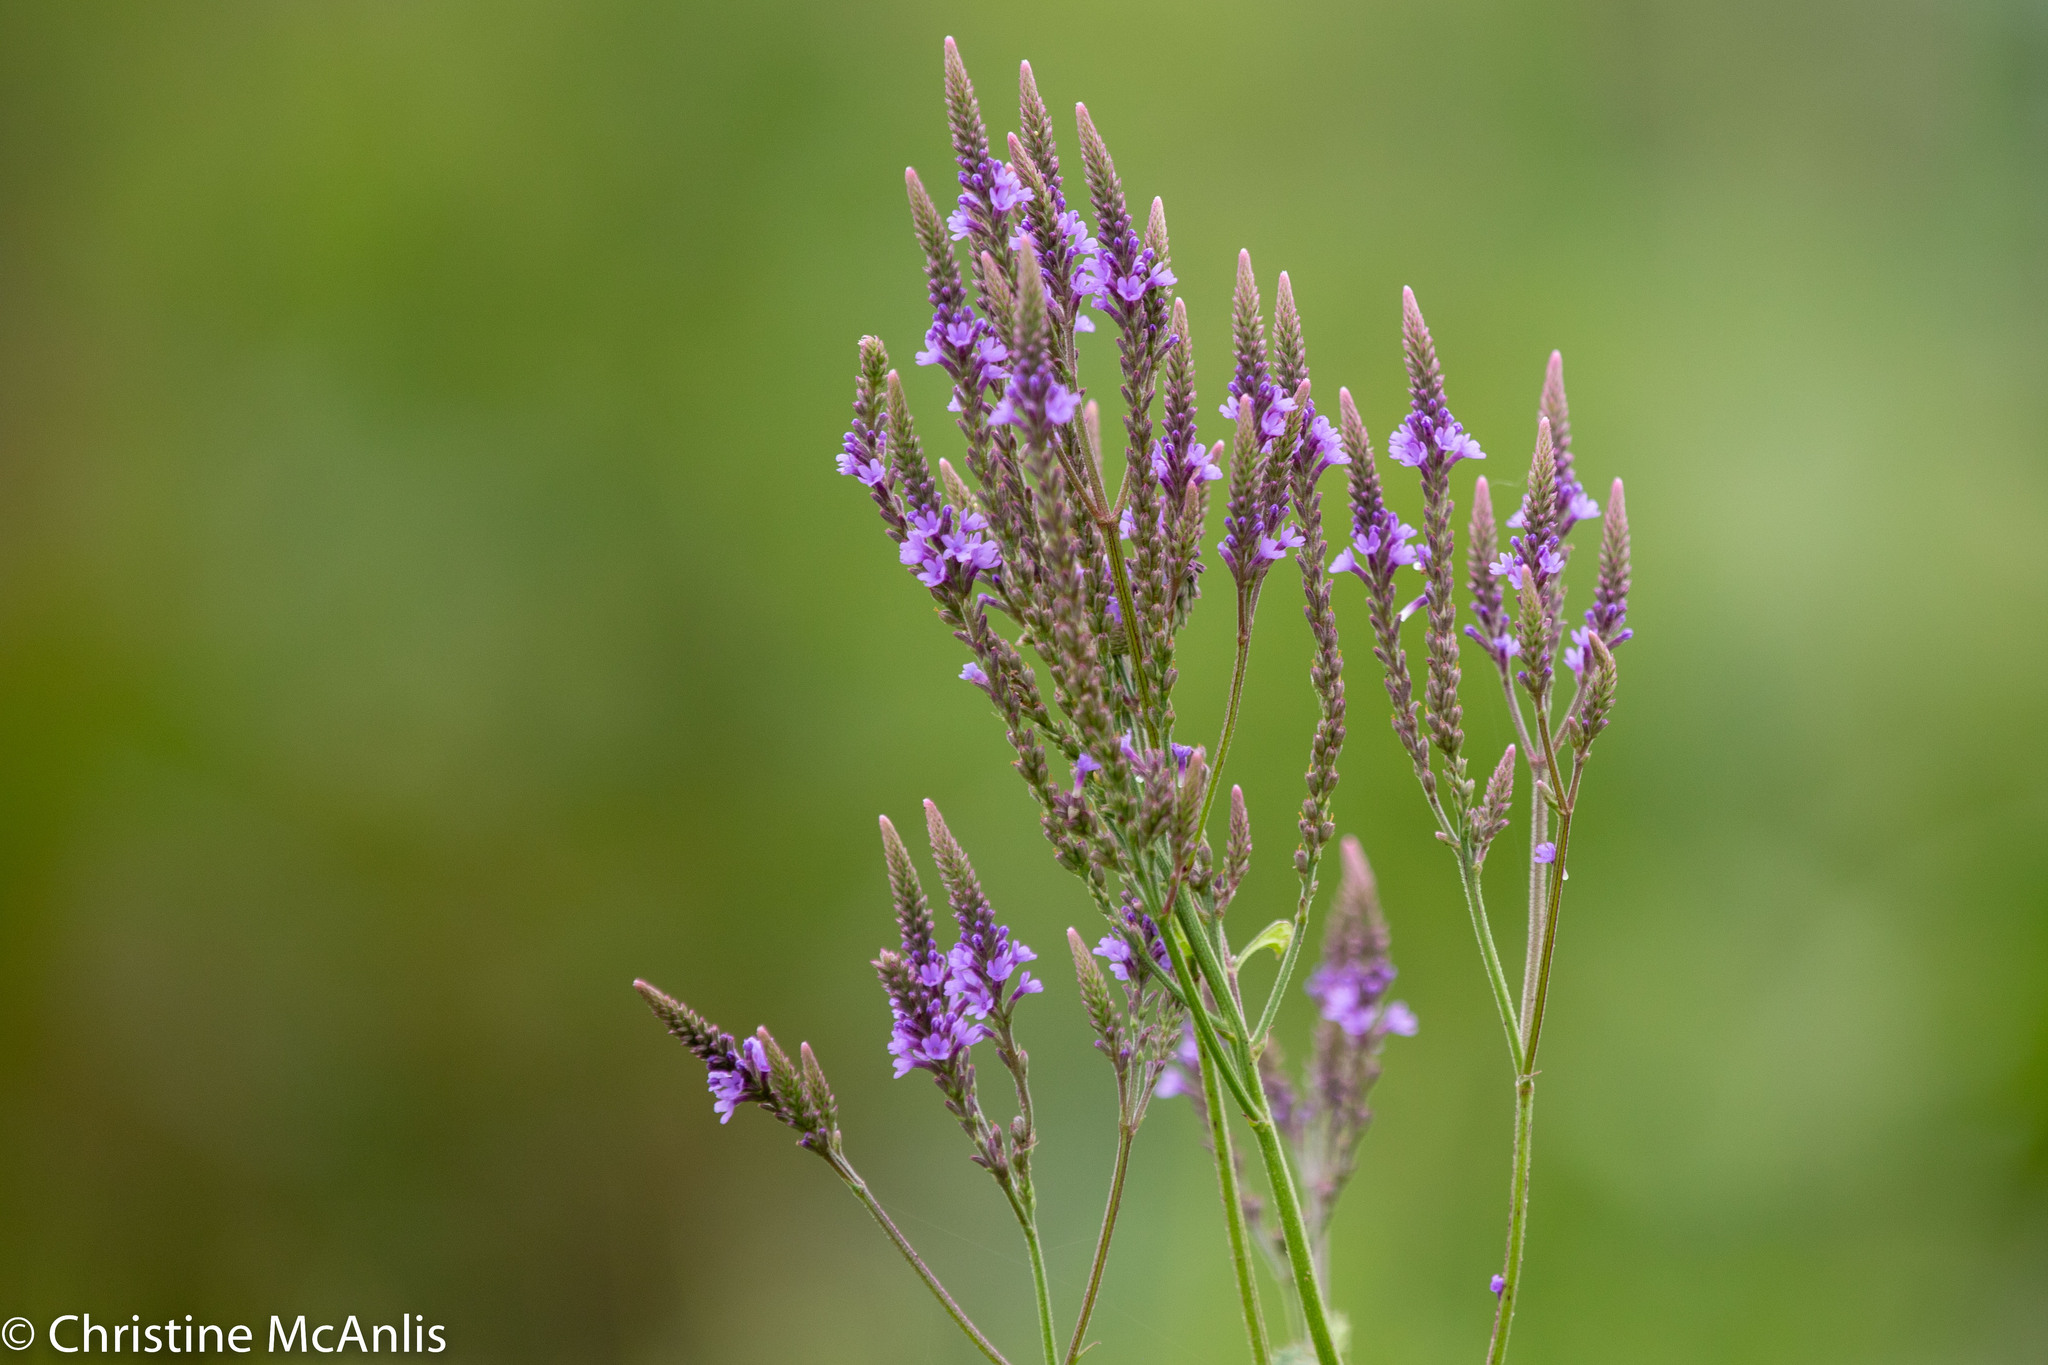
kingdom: Plantae
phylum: Tracheophyta
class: Magnoliopsida
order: Lamiales
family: Verbenaceae
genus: Verbena
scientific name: Verbena hastata
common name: American blue vervain
